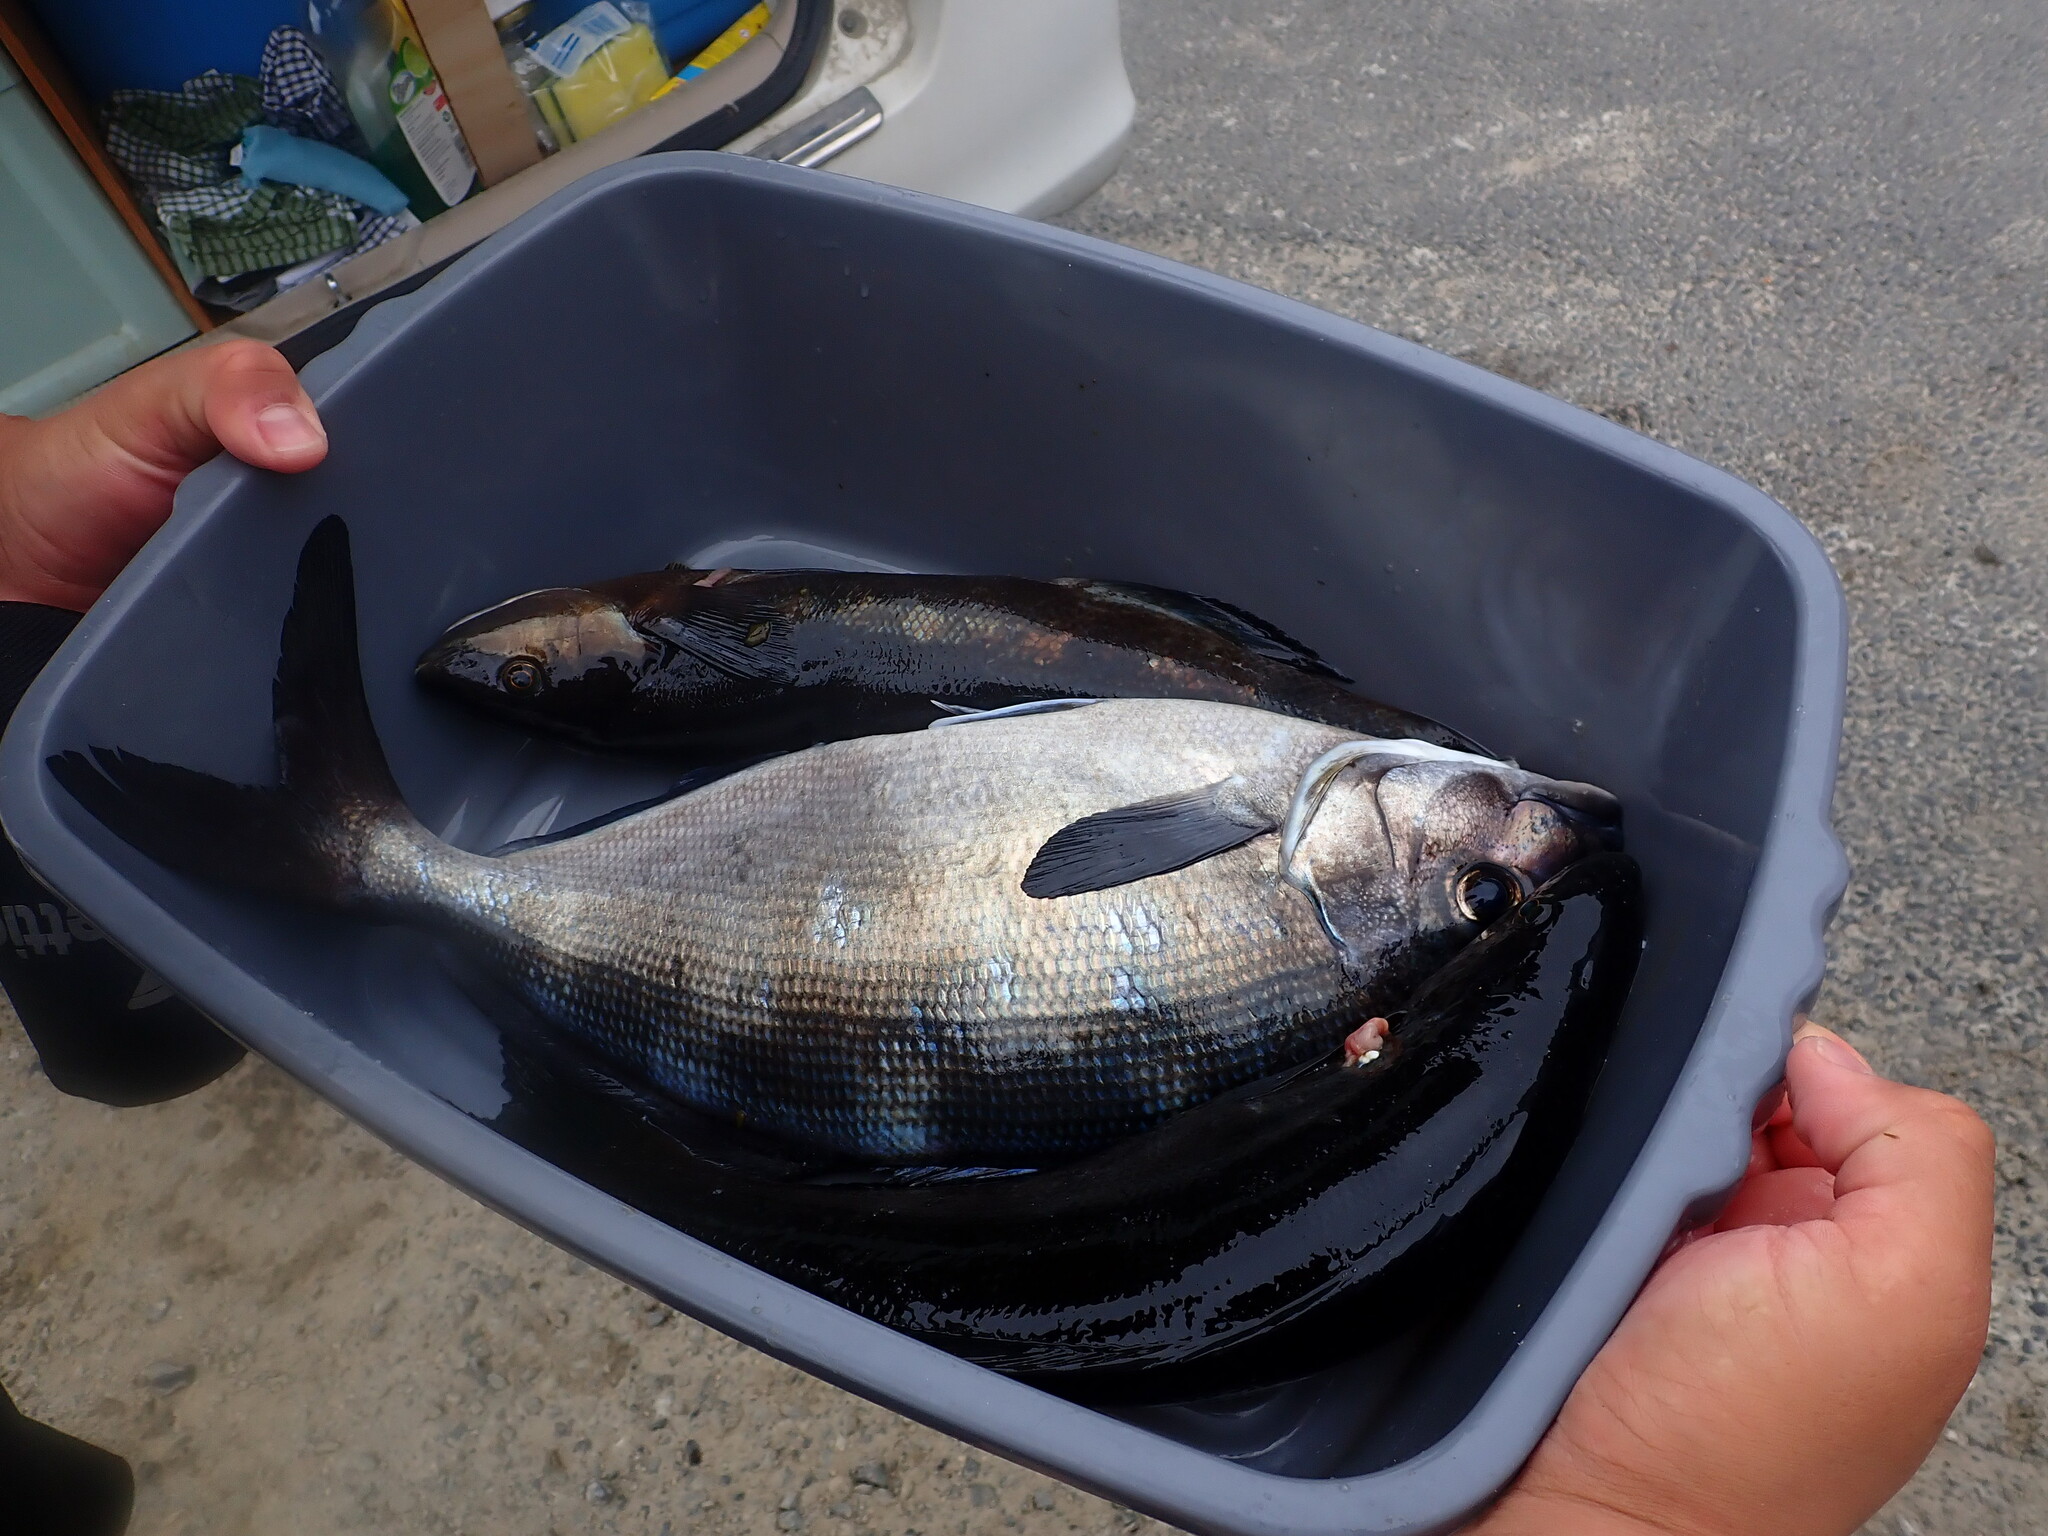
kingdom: Animalia
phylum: Chordata
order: Perciformes
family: Odacidae
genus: Odax
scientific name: Odax pullus
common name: Butterfish
